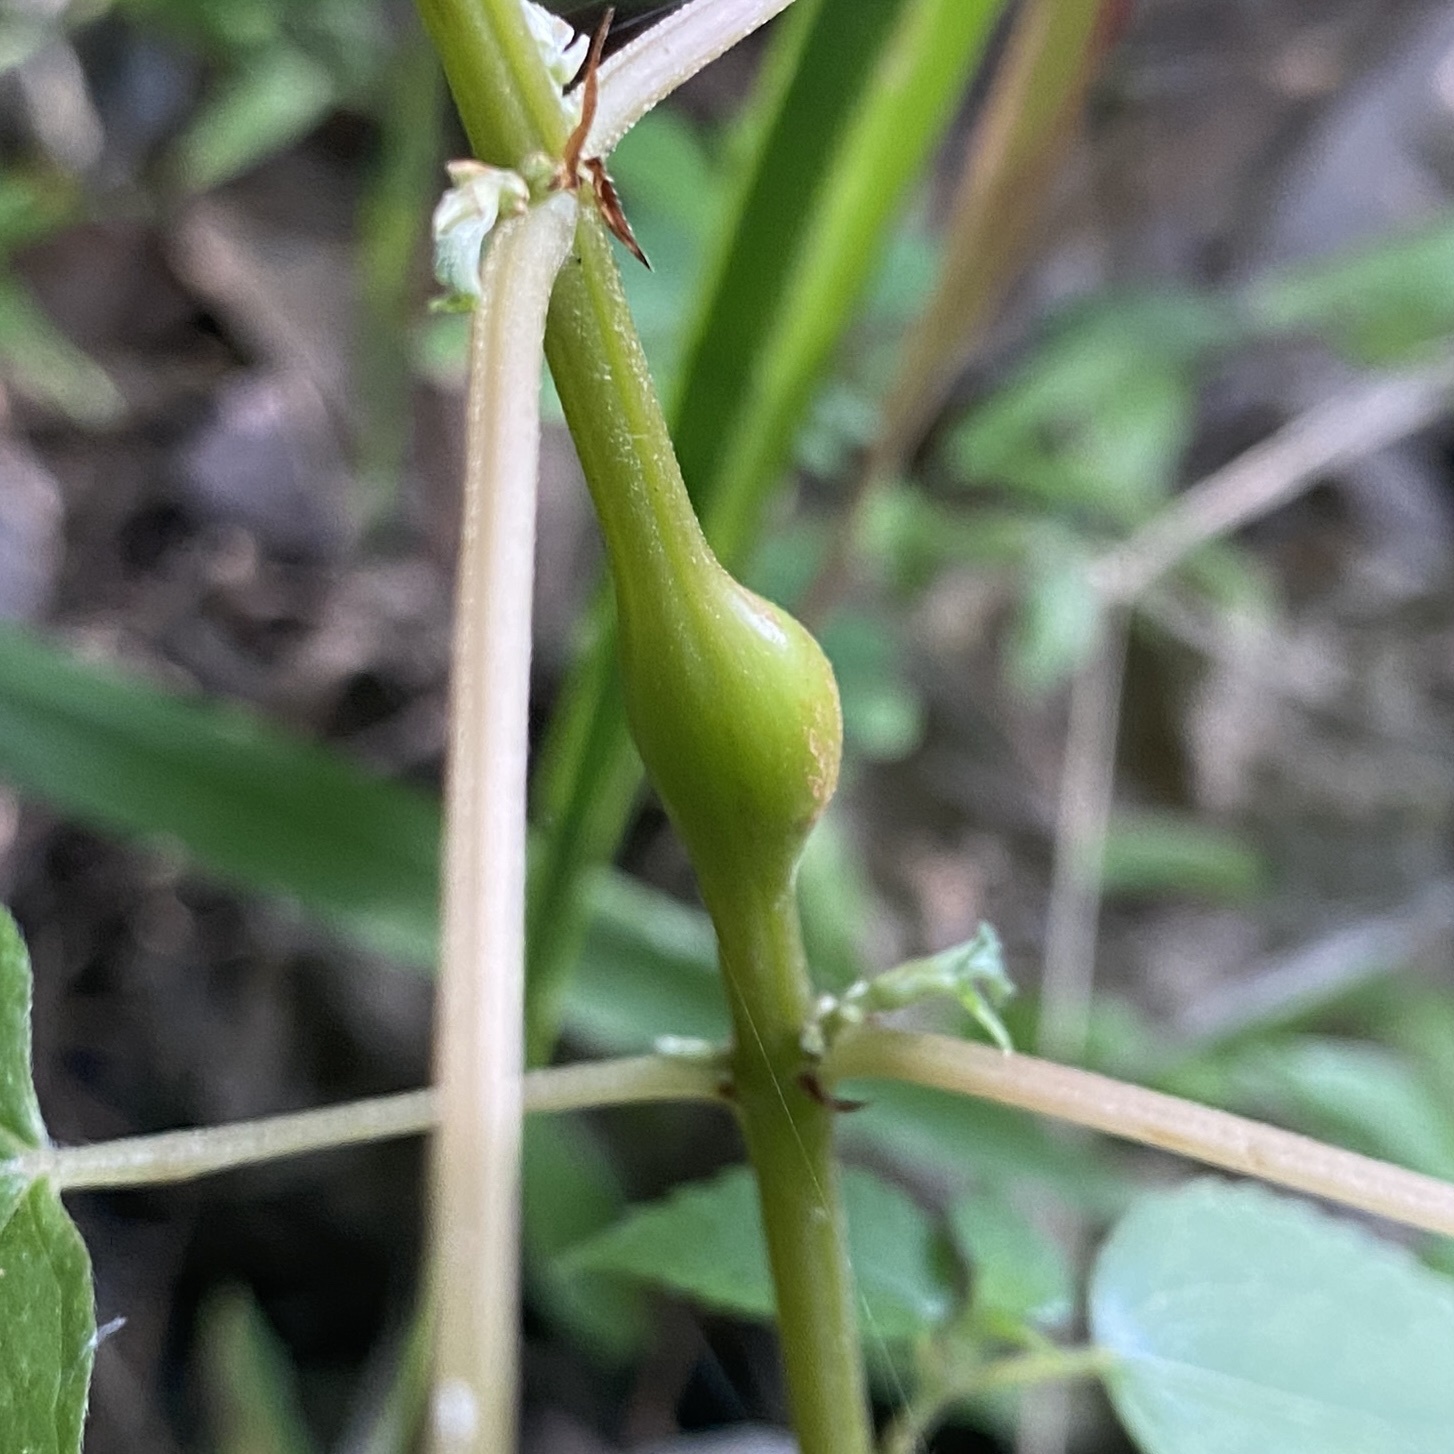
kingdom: Animalia
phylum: Arthropoda
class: Insecta
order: Diptera
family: Cecidomyiidae
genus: Neolasioptera
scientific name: Neolasioptera boehmeriae
